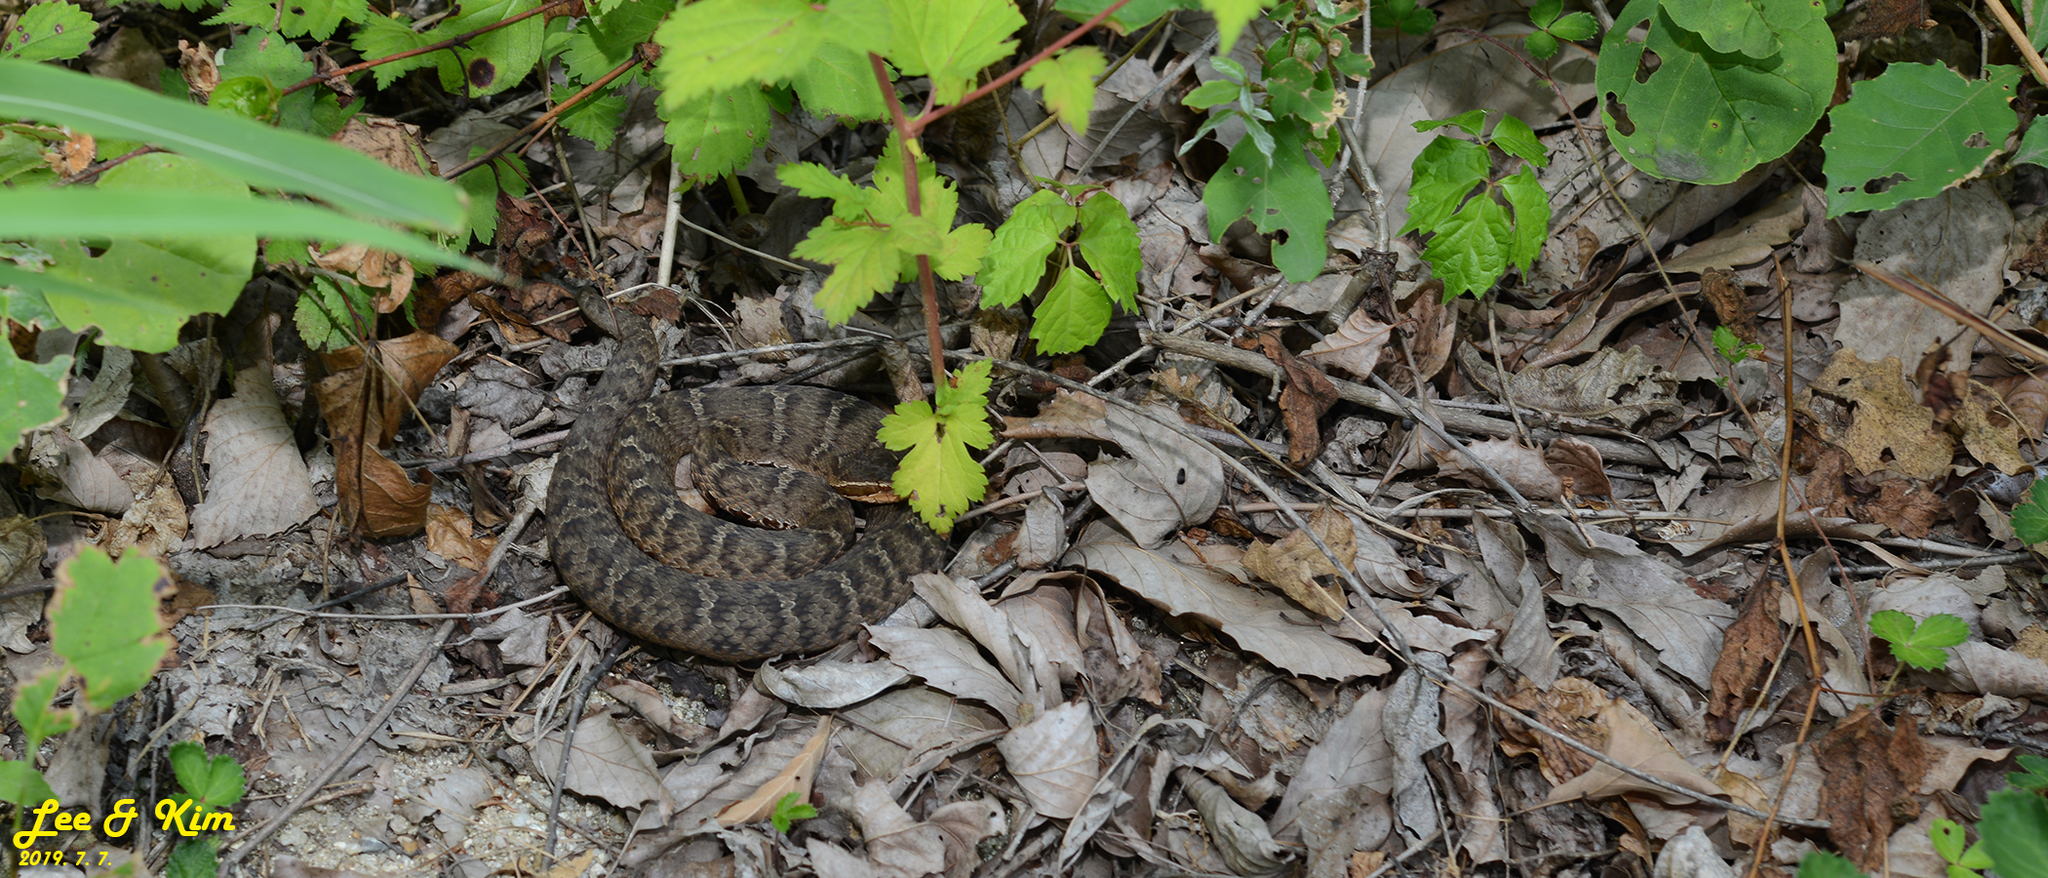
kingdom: Animalia
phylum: Chordata
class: Squamata
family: Viperidae
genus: Gloydius
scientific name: Gloydius ussuriensis
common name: Ussuri mamushi
